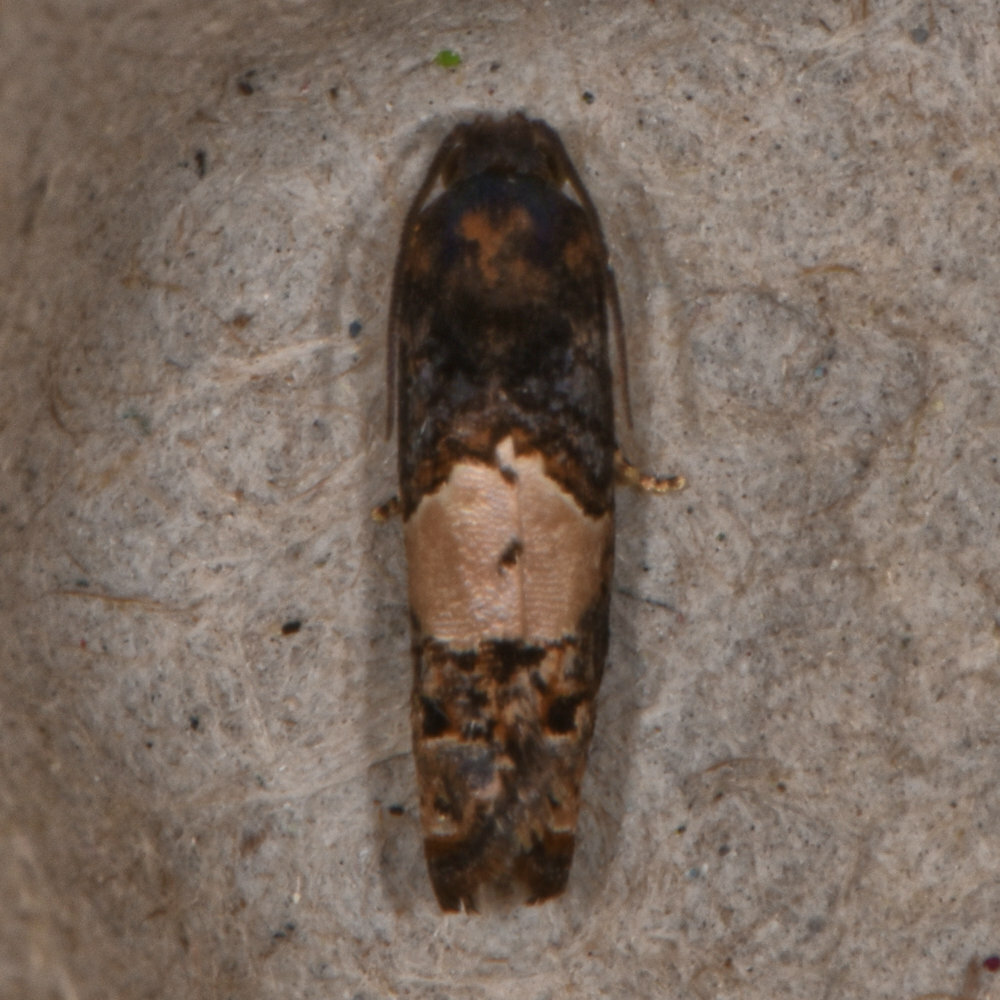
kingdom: Animalia
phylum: Arthropoda
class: Insecta
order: Lepidoptera
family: Tortricidae
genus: Epiblema
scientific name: Epiblema glenni
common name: Glenn's epiblema
